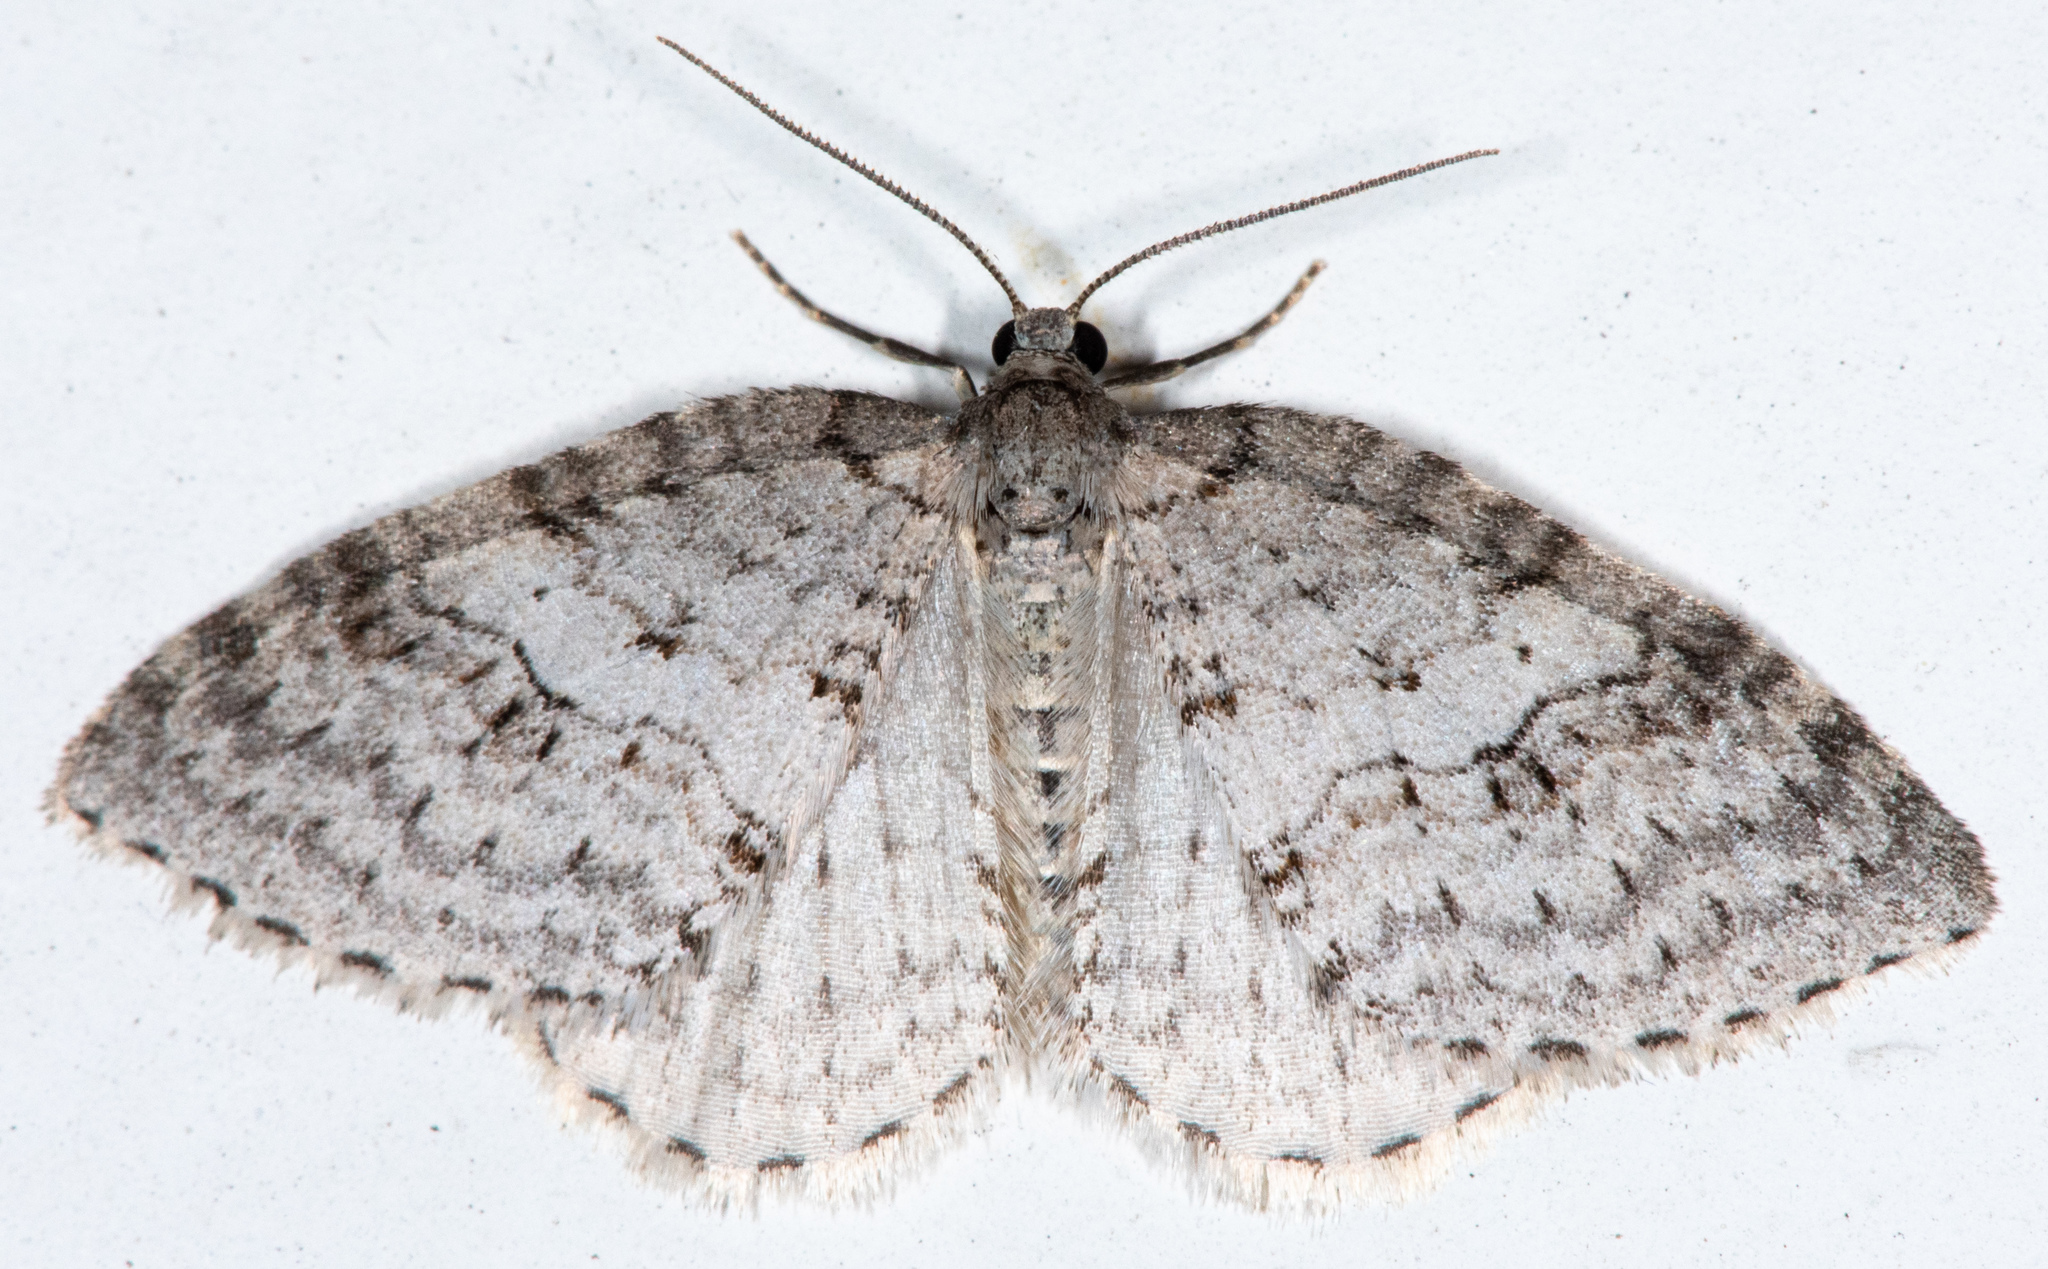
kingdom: Animalia
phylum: Arthropoda
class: Insecta
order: Lepidoptera
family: Geometridae
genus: Venusia
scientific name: Venusia
